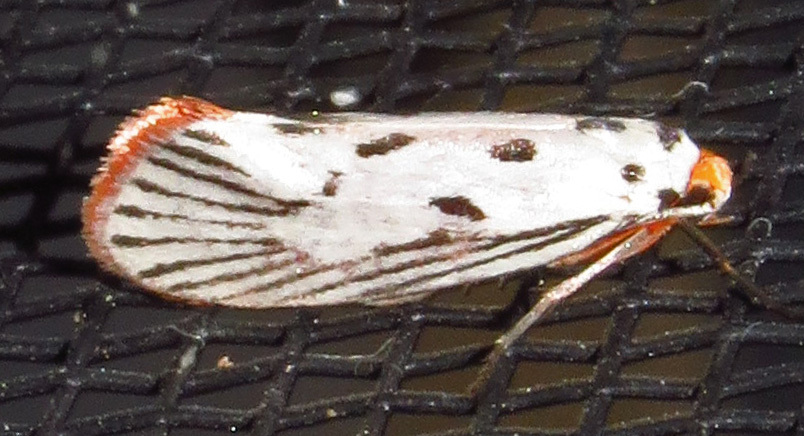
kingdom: Animalia
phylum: Arthropoda
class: Insecta
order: Lepidoptera
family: Lacturidae
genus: Lactura
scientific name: Lactura
